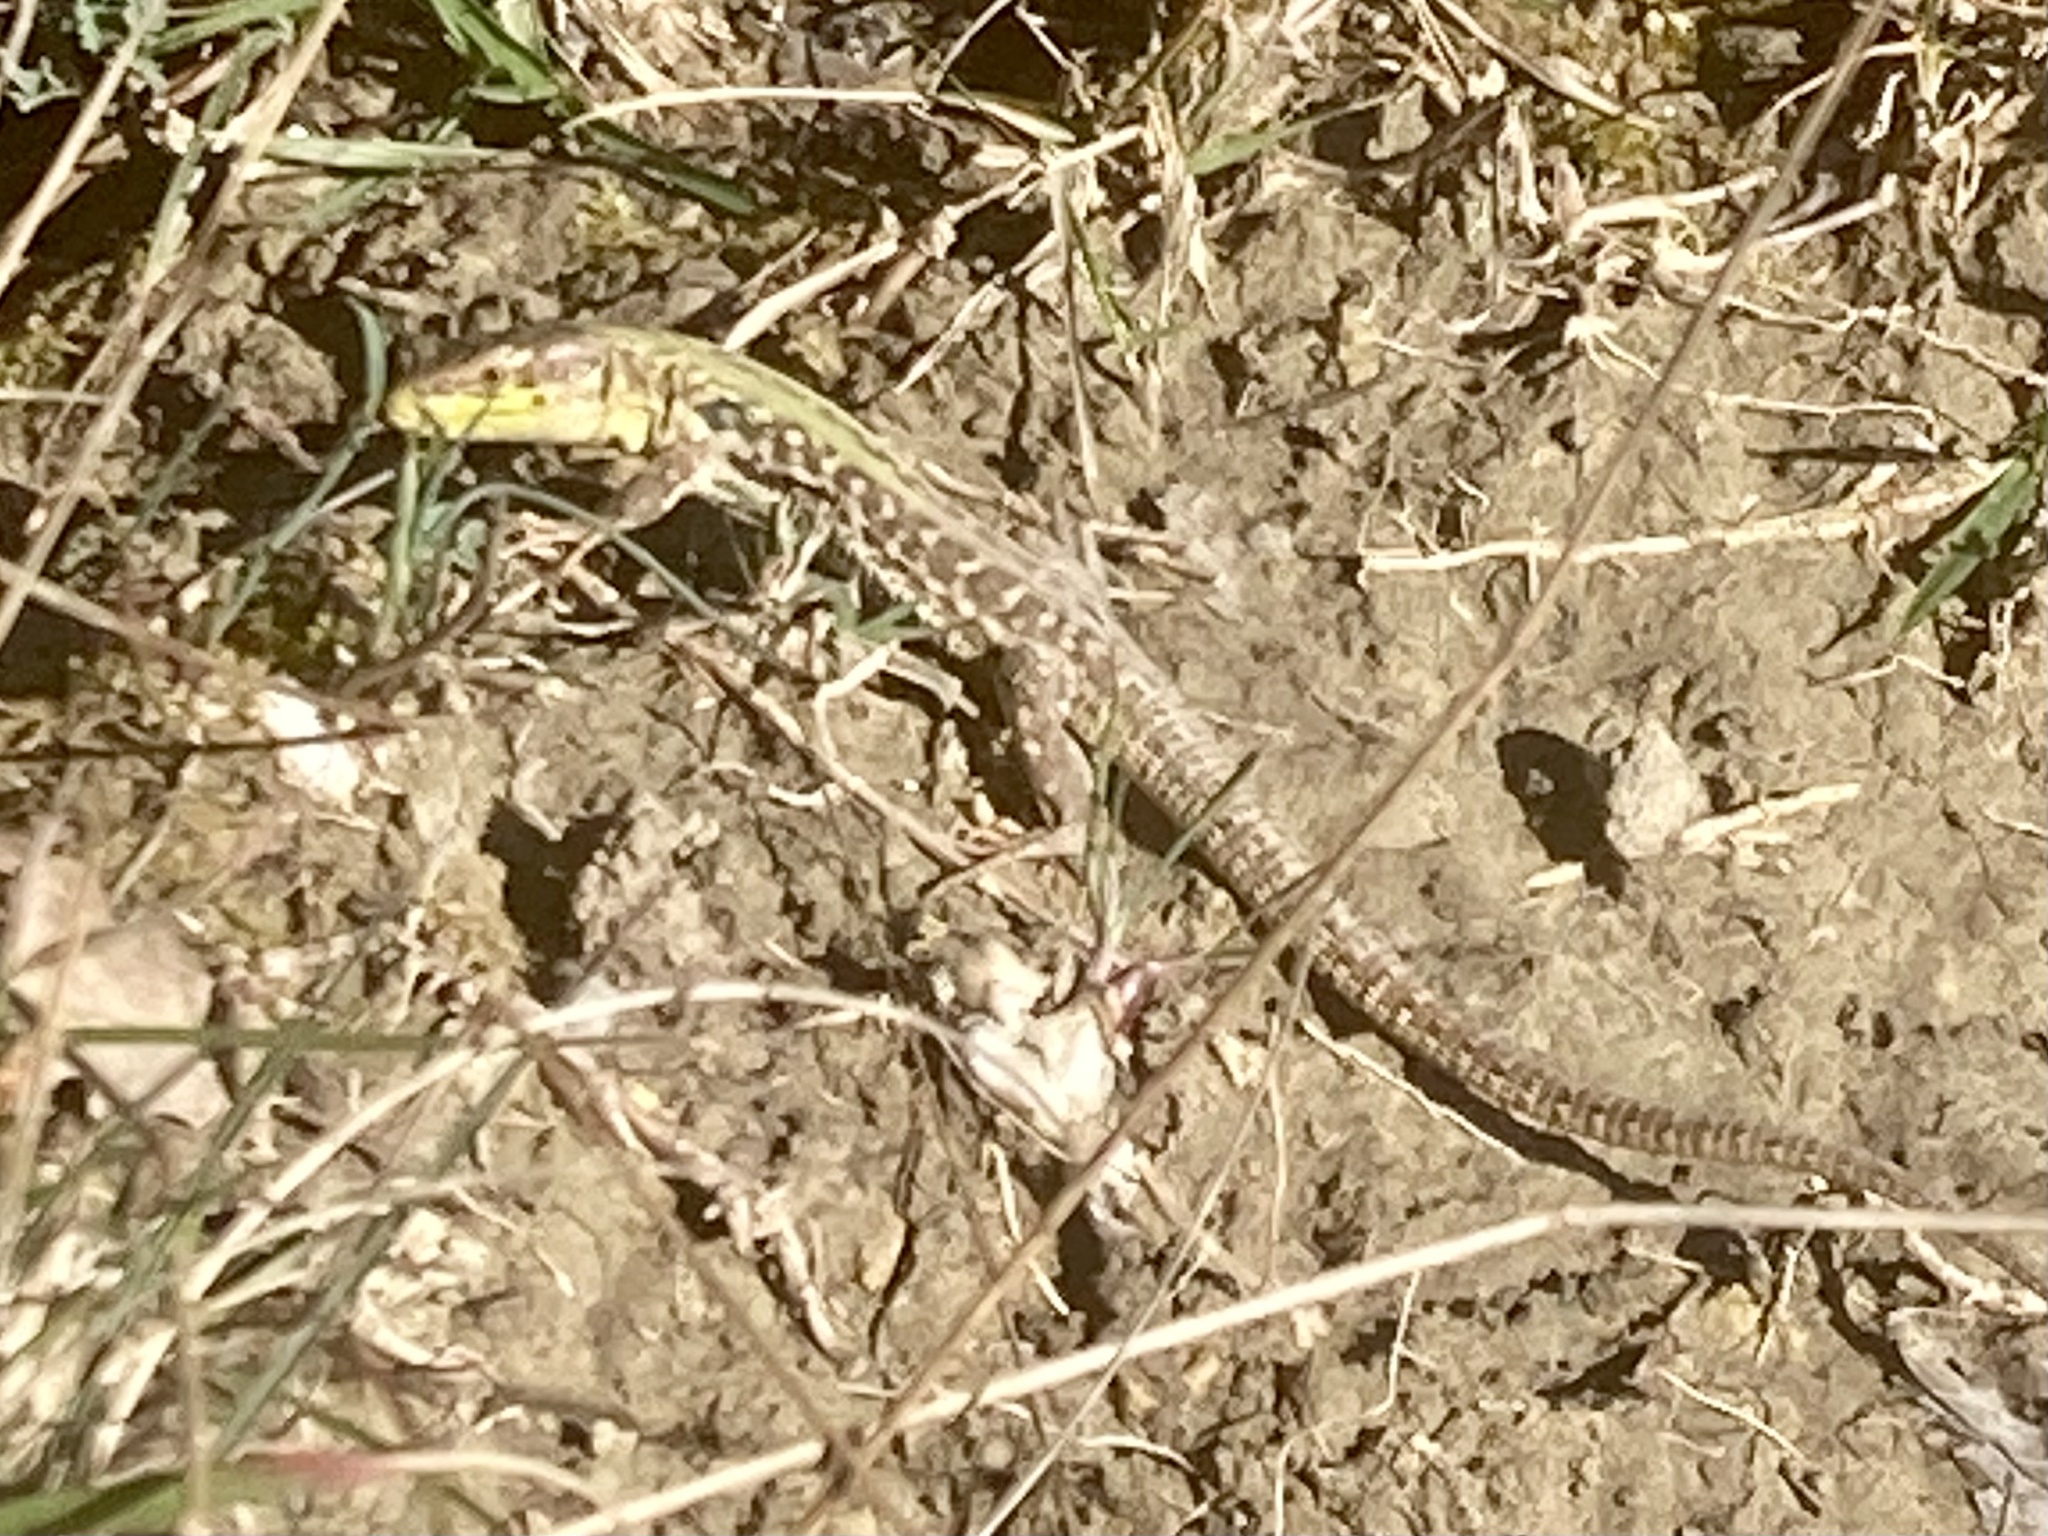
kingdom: Animalia
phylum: Chordata
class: Squamata
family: Lacertidae
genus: Podarcis
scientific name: Podarcis siculus
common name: Italian wall lizard
